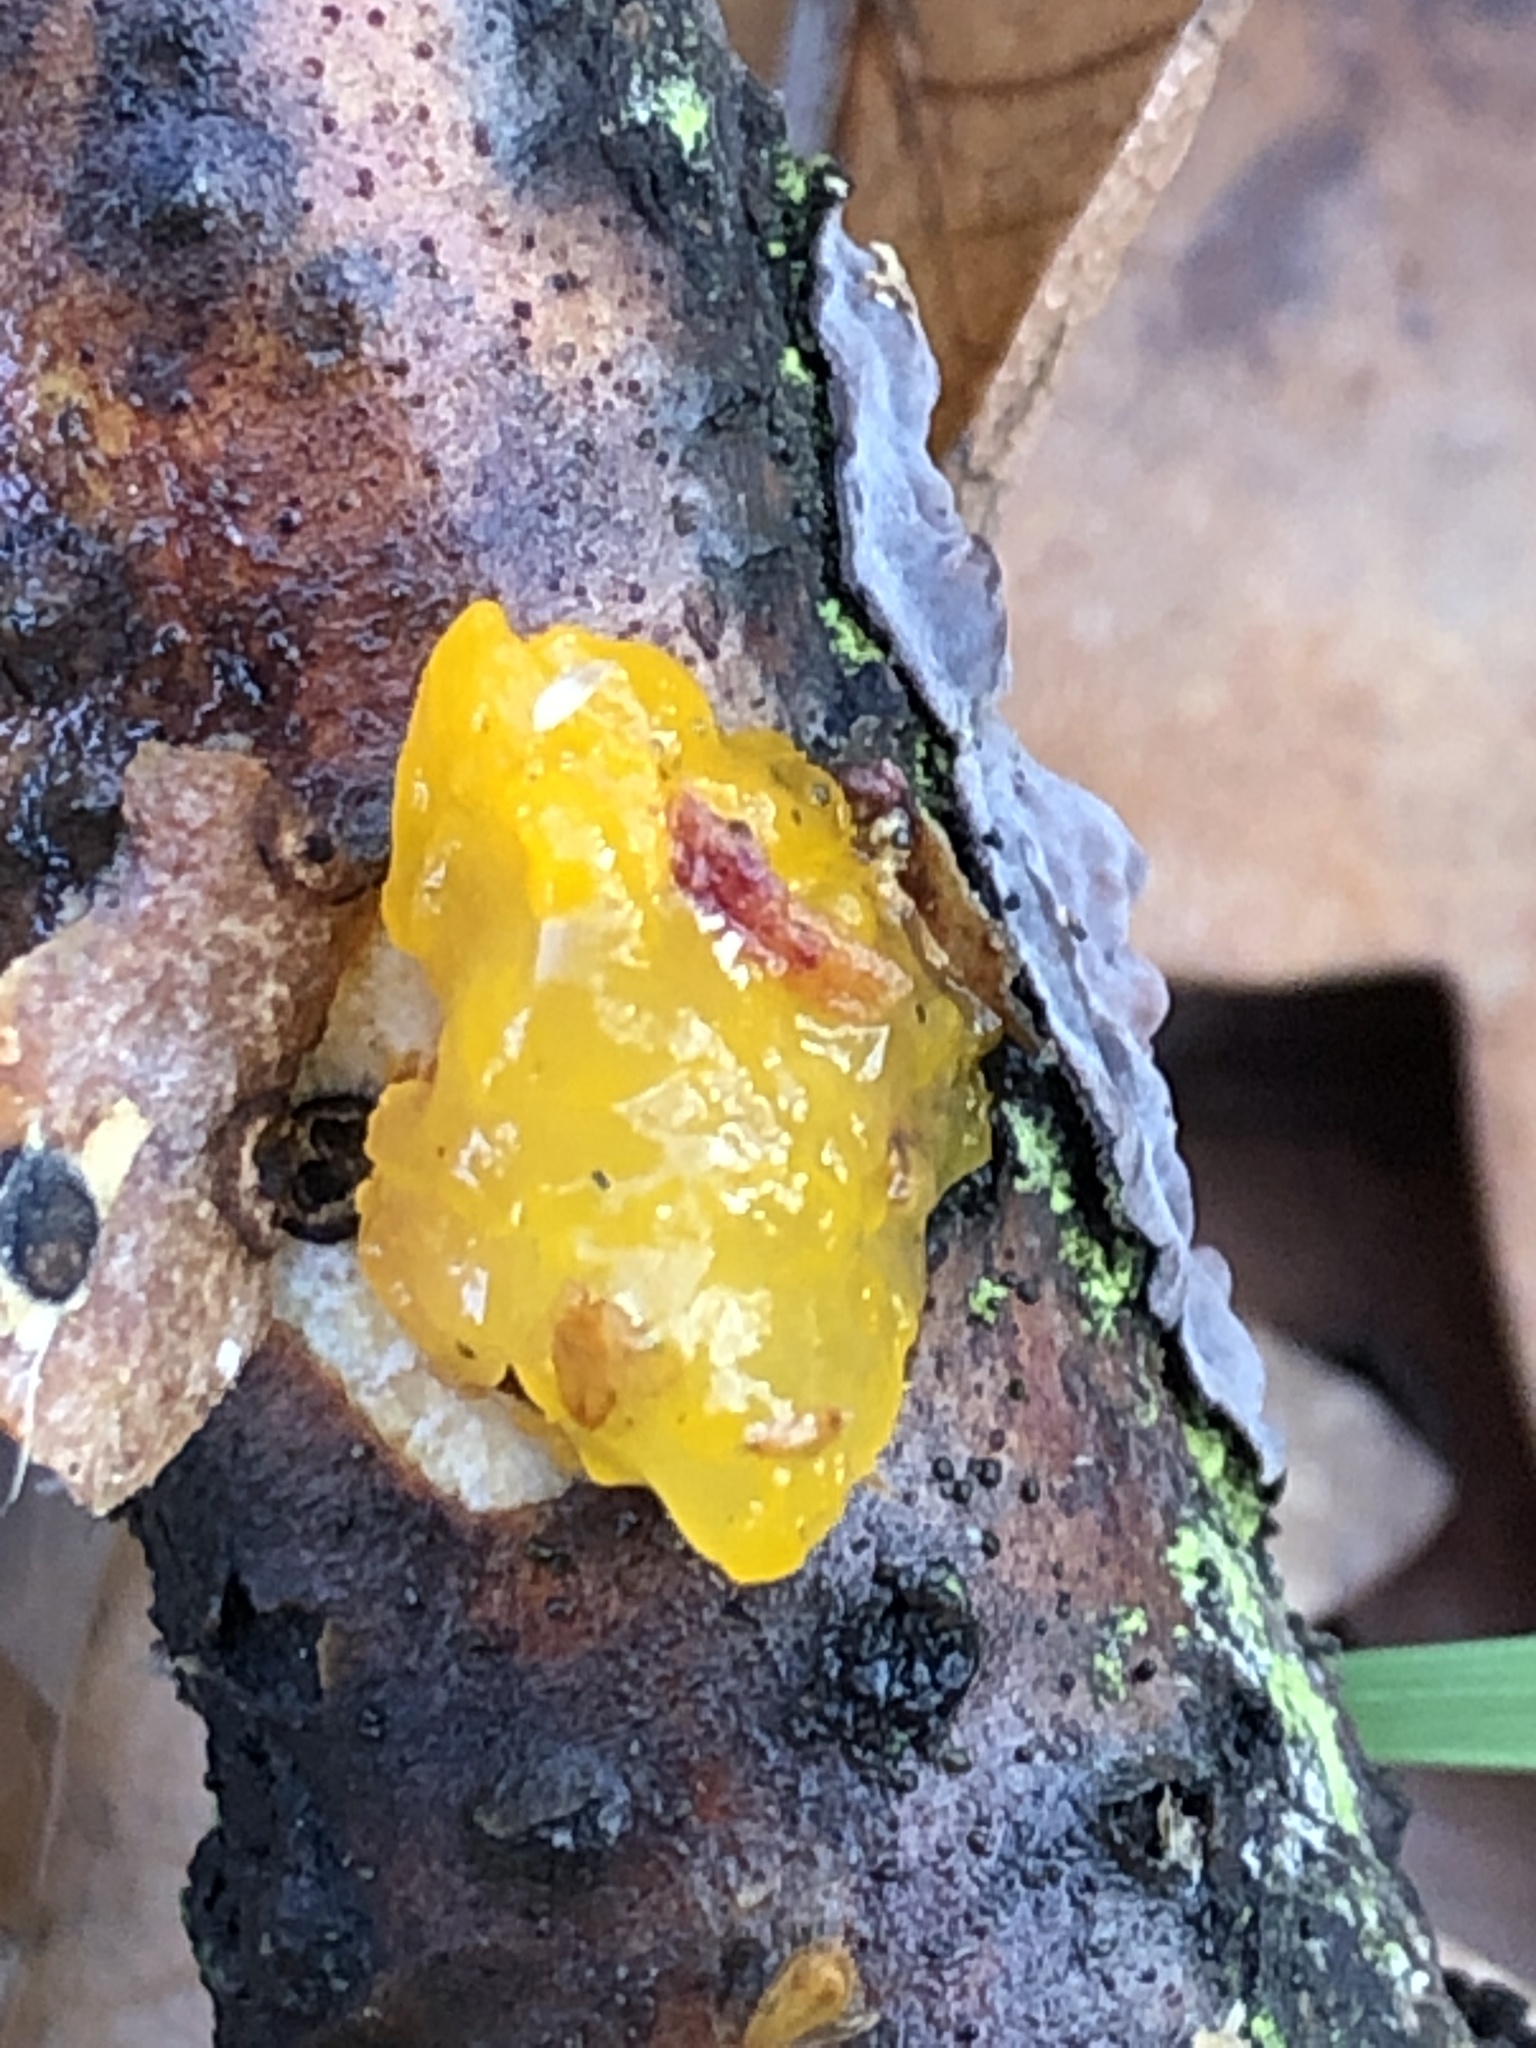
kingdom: Fungi
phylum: Basidiomycota
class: Tremellomycetes
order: Tremellales
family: Tremellaceae
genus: Tremella
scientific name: Tremella mesenterica
